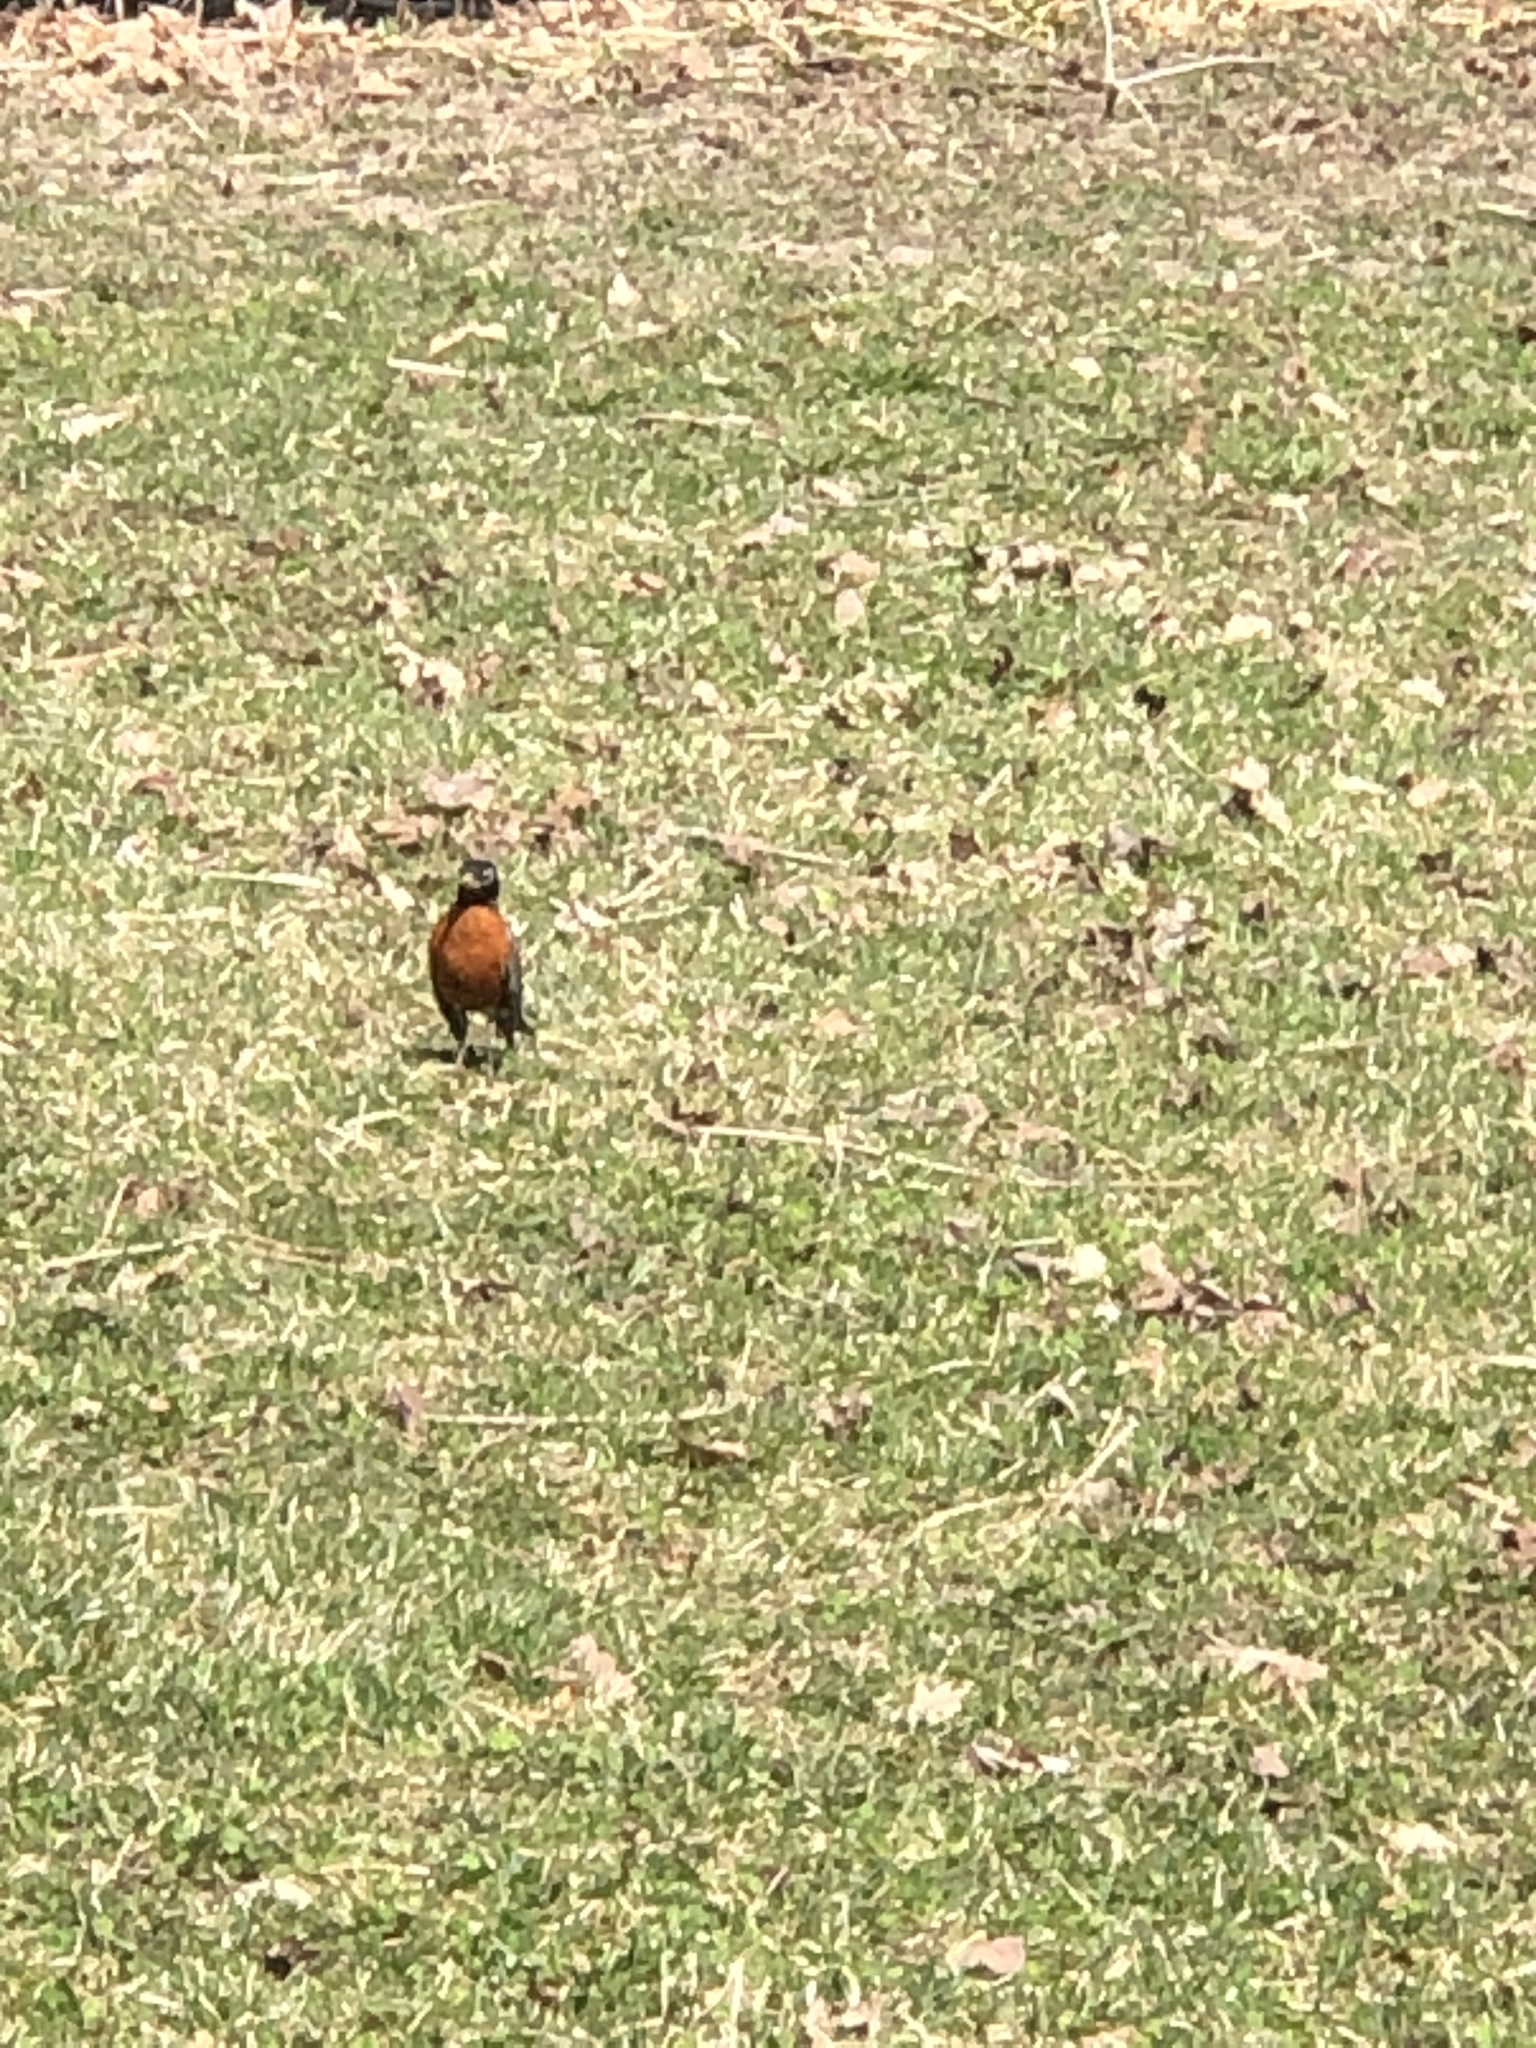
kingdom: Animalia
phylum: Chordata
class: Aves
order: Passeriformes
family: Turdidae
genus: Turdus
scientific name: Turdus migratorius
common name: American robin
